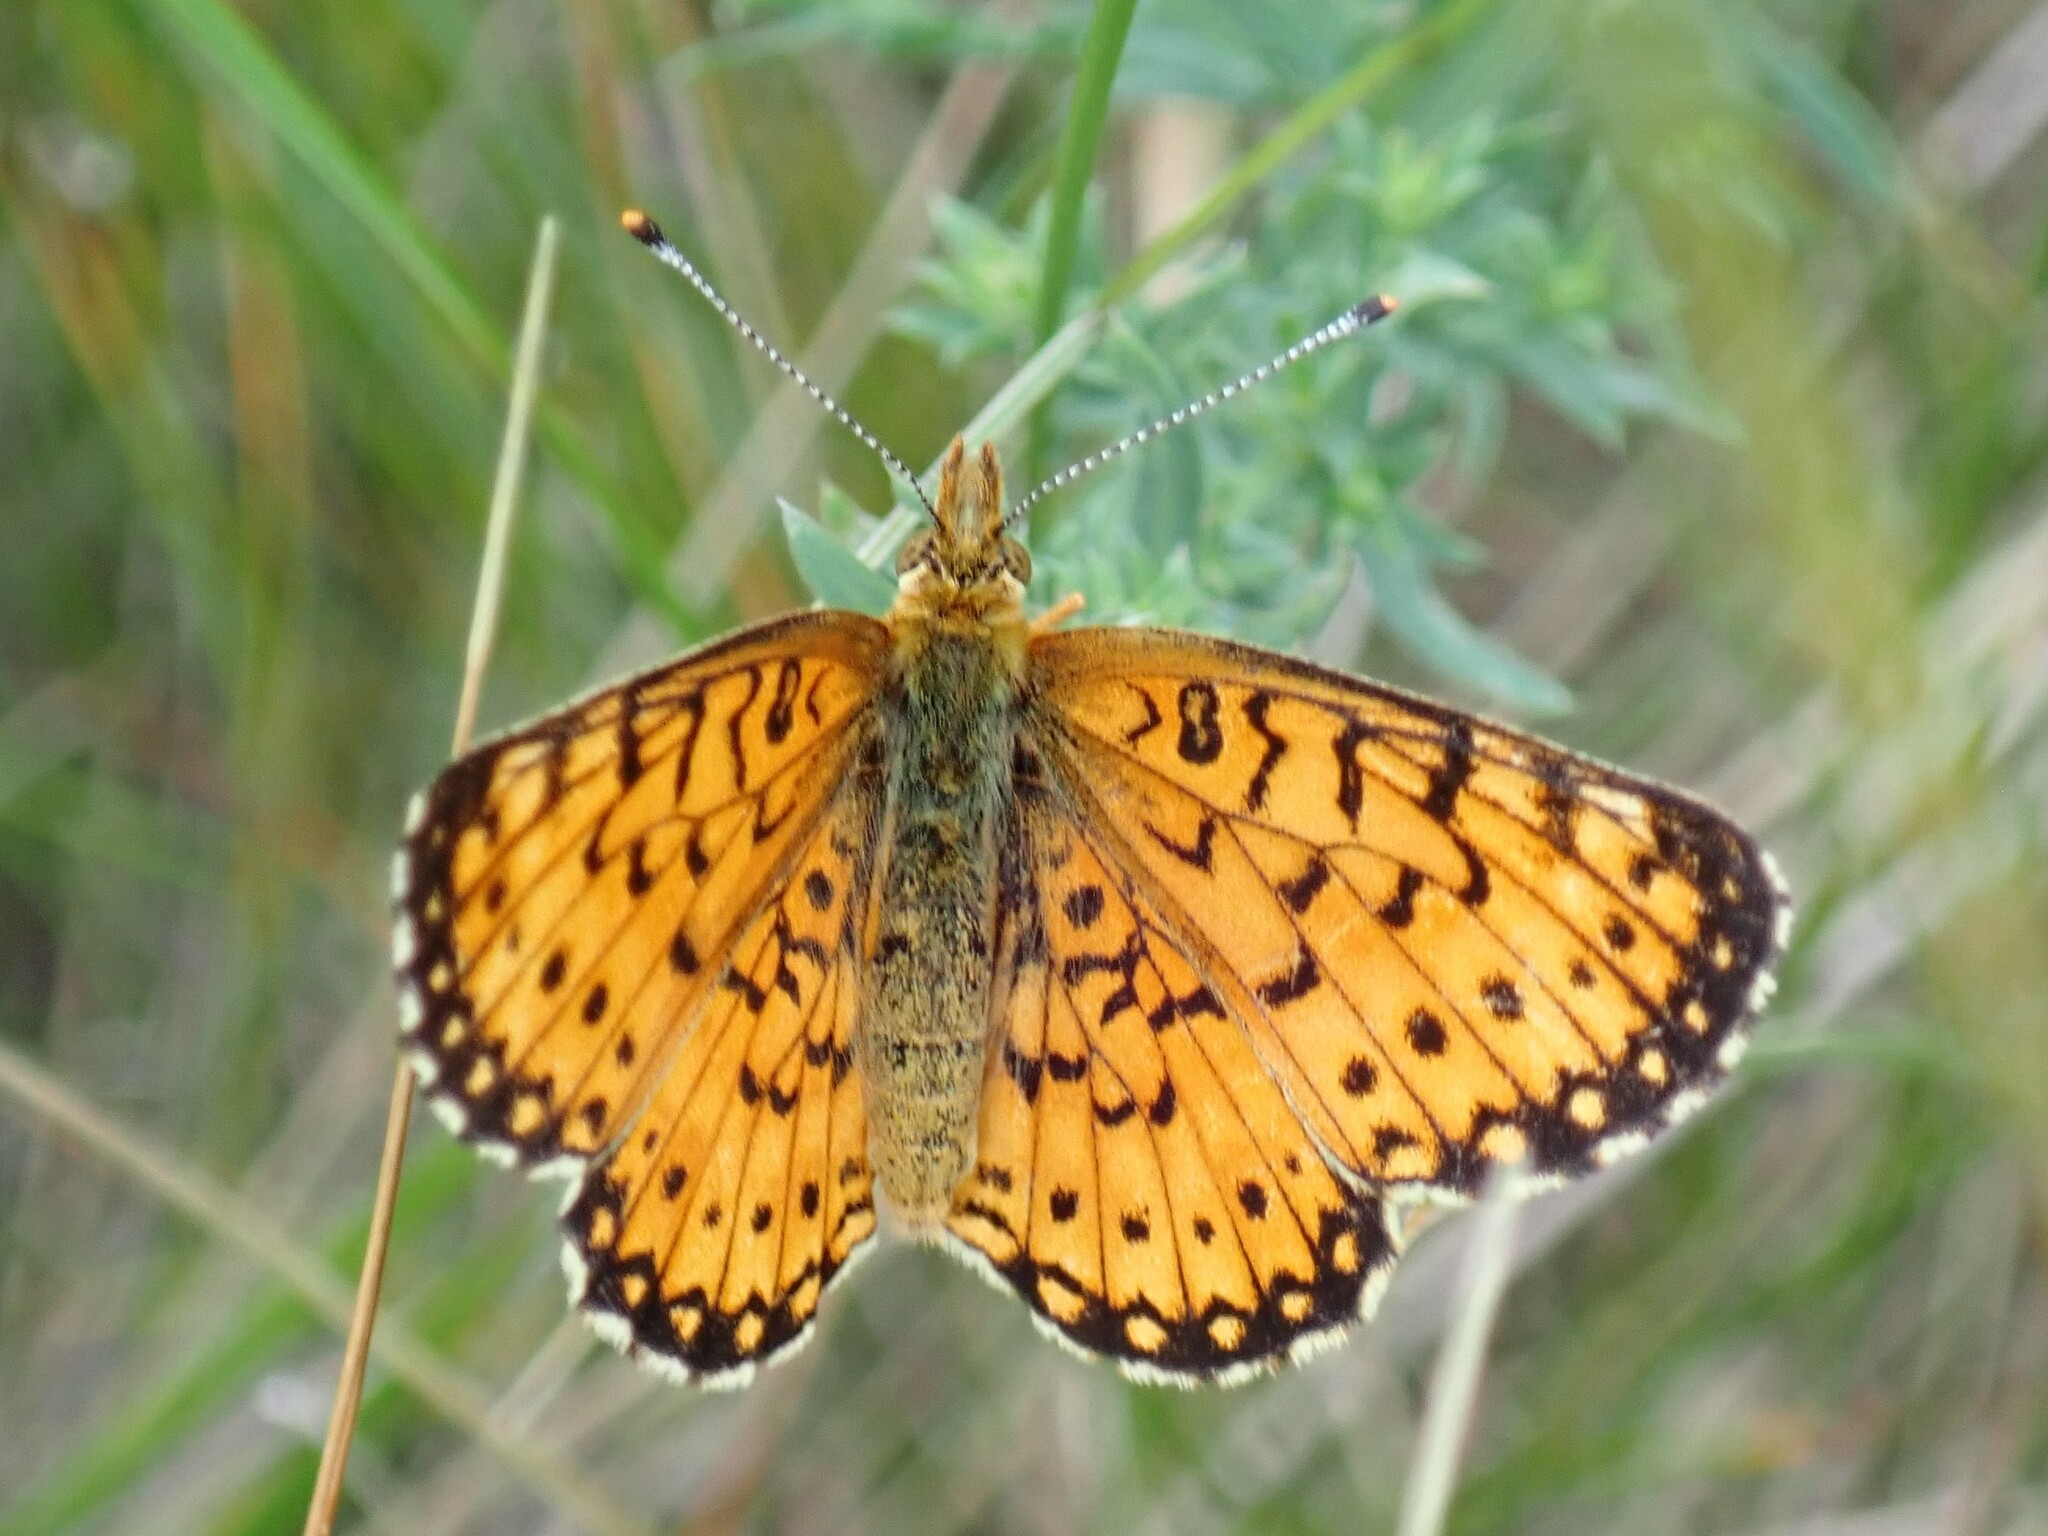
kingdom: Animalia
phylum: Arthropoda
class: Insecta
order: Lepidoptera
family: Nymphalidae
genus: Boloria
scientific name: Boloria
